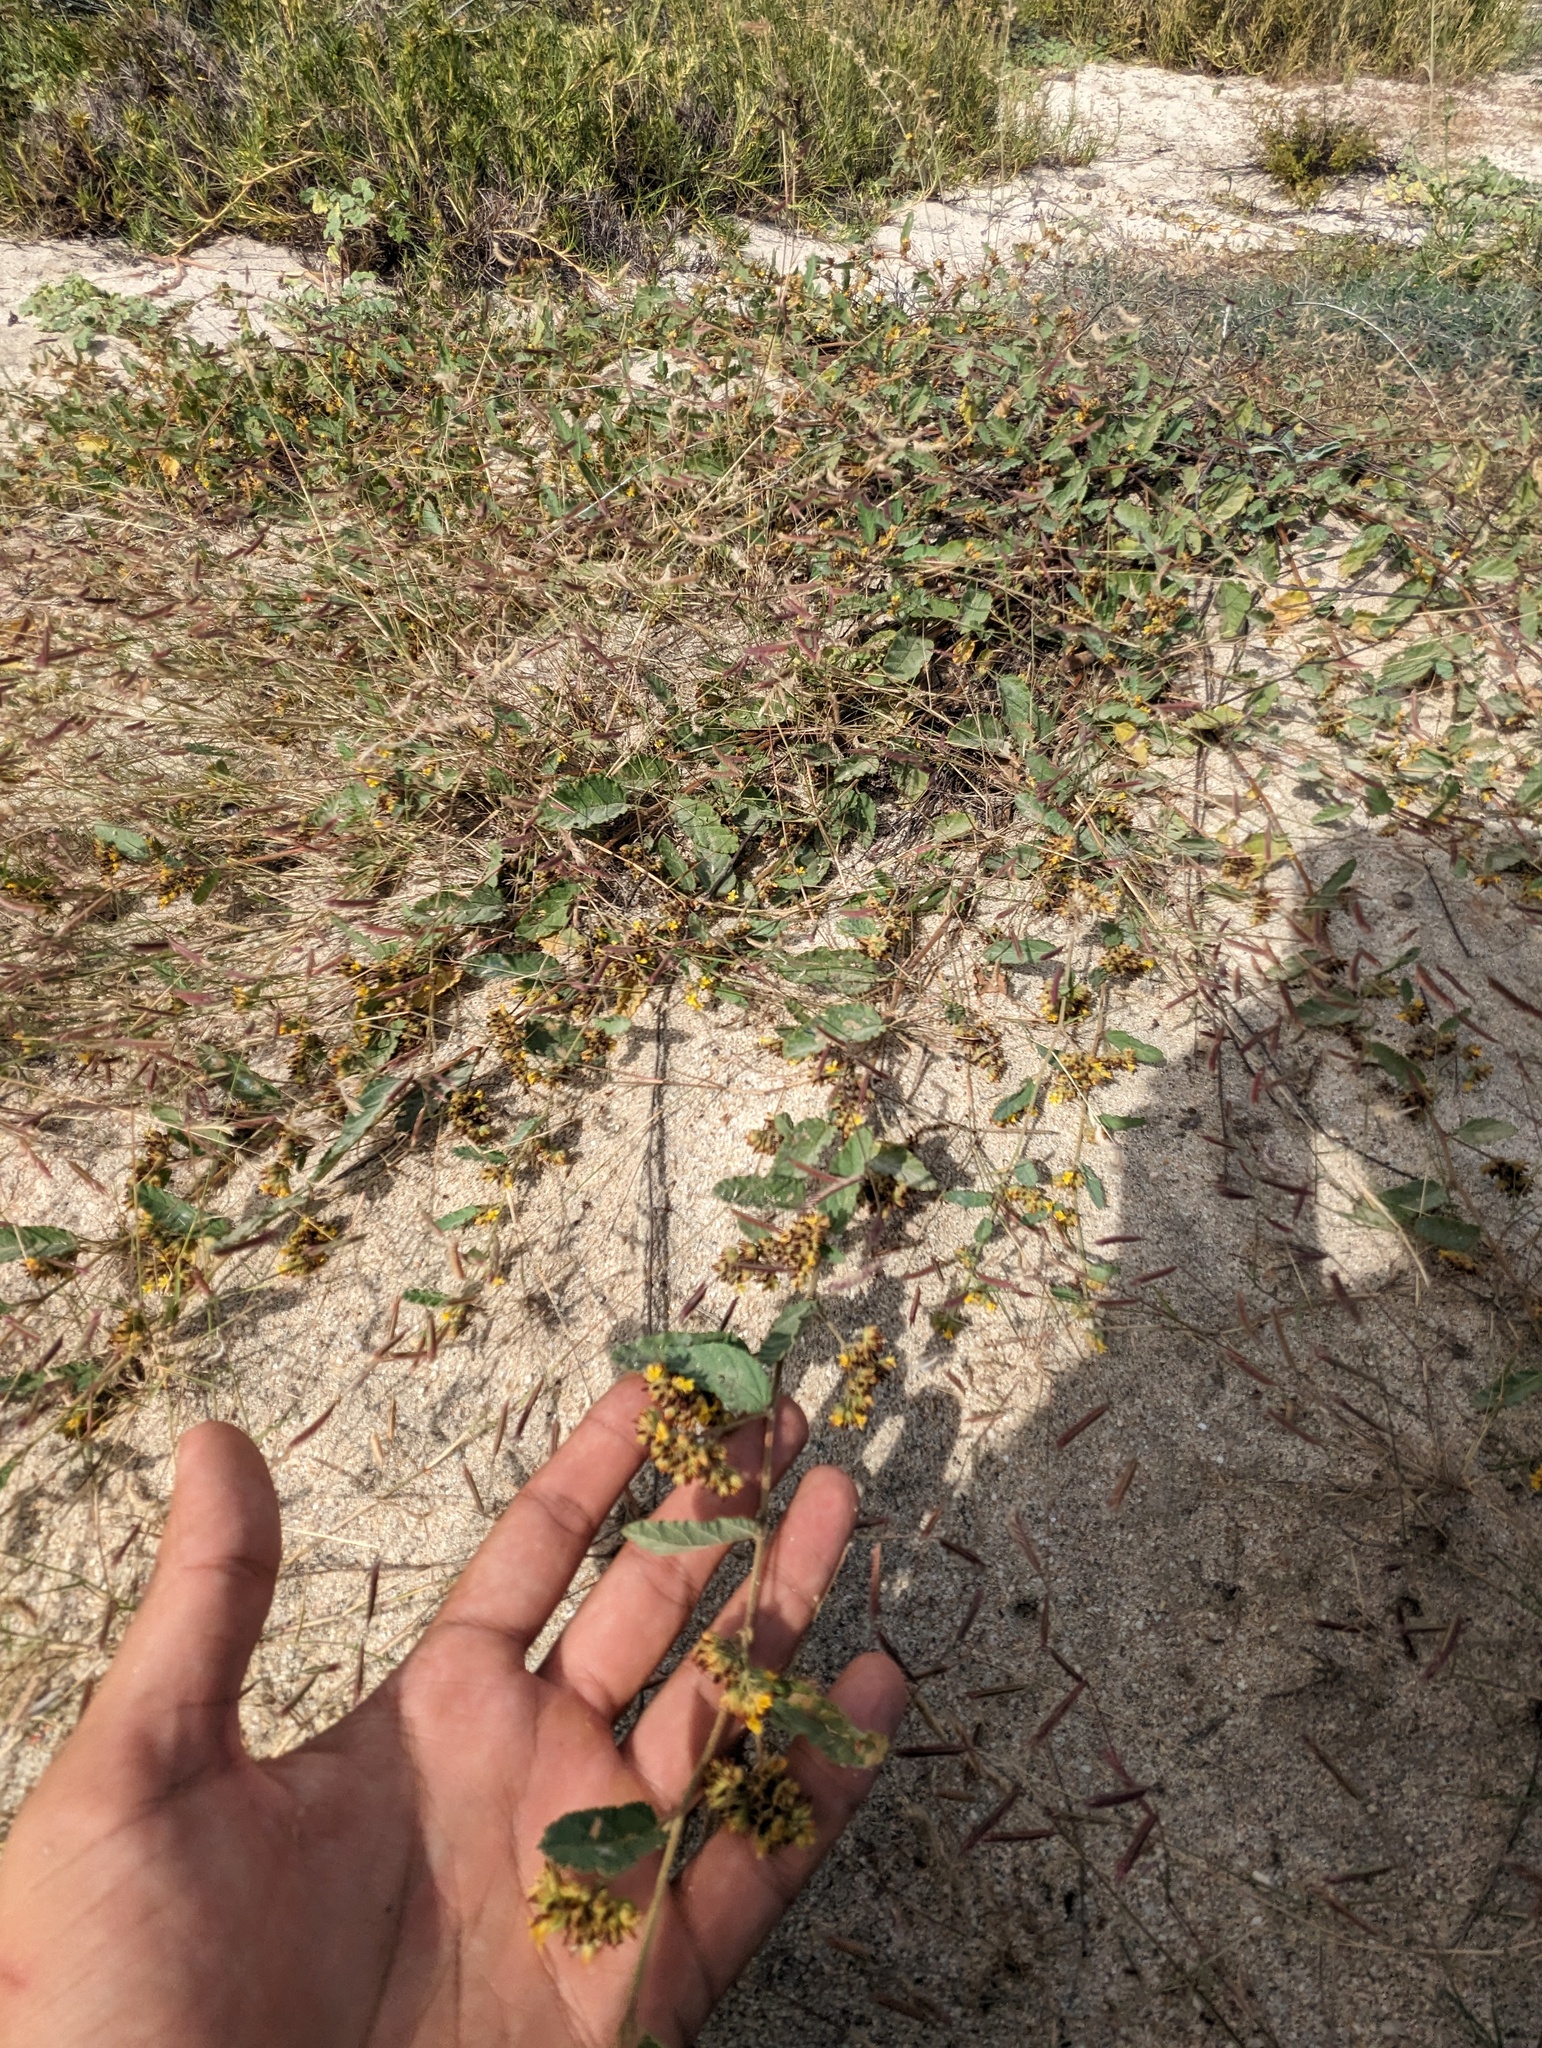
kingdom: Plantae
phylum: Tracheophyta
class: Magnoliopsida
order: Malvales
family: Malvaceae
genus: Waltheria
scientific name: Waltheria indica
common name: Leather-coat
